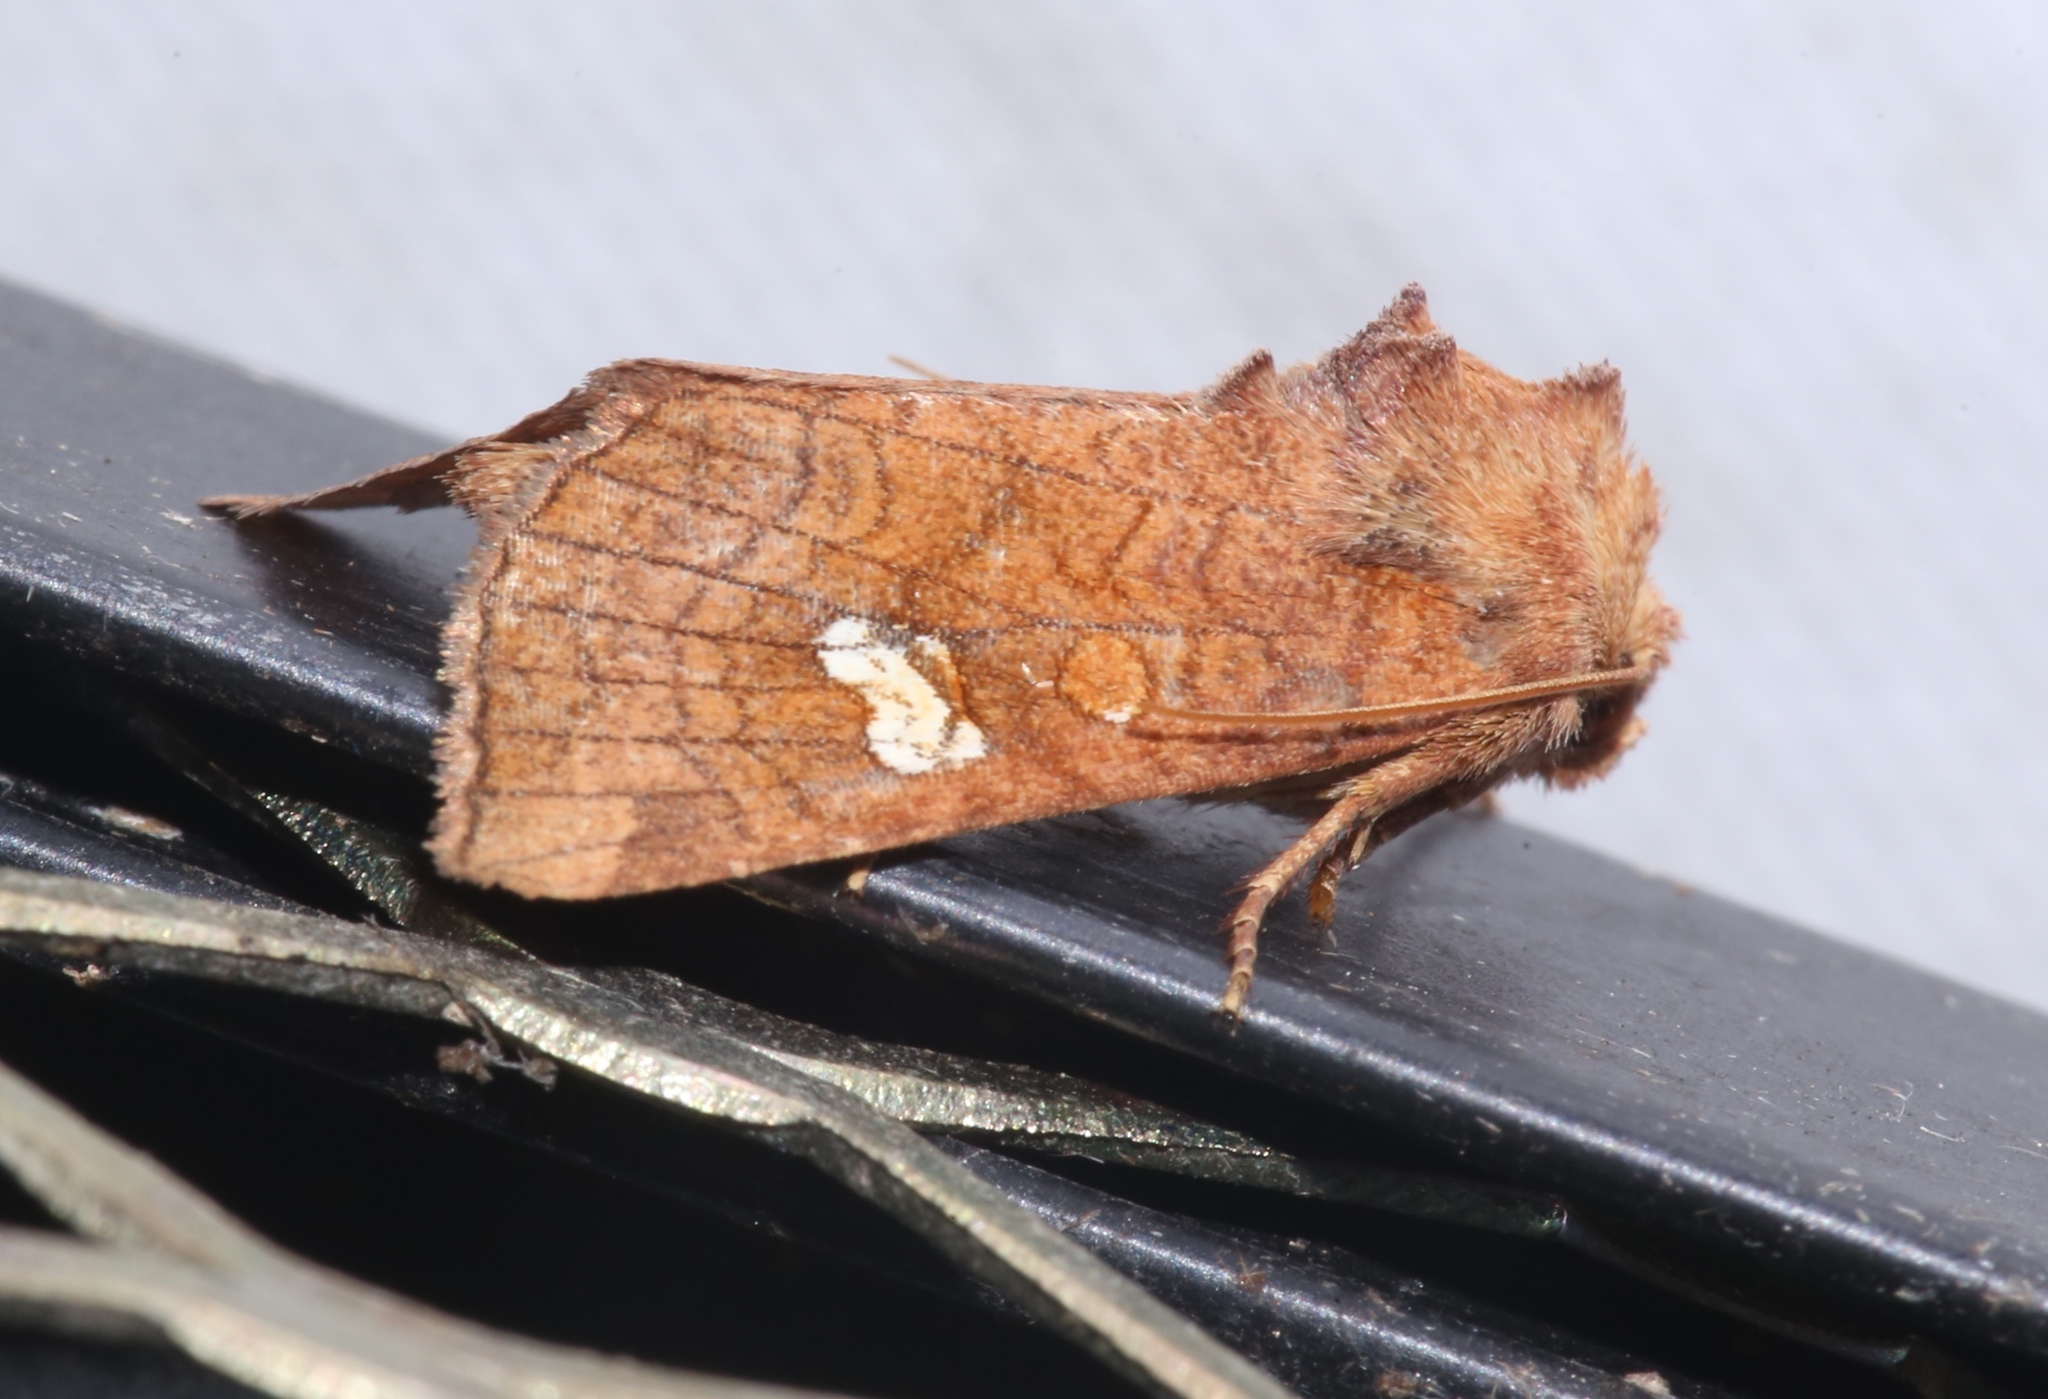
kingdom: Animalia
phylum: Arthropoda
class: Insecta
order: Lepidoptera
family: Noctuidae
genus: Amphipoea
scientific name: Amphipoea americana
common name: American ear moth
